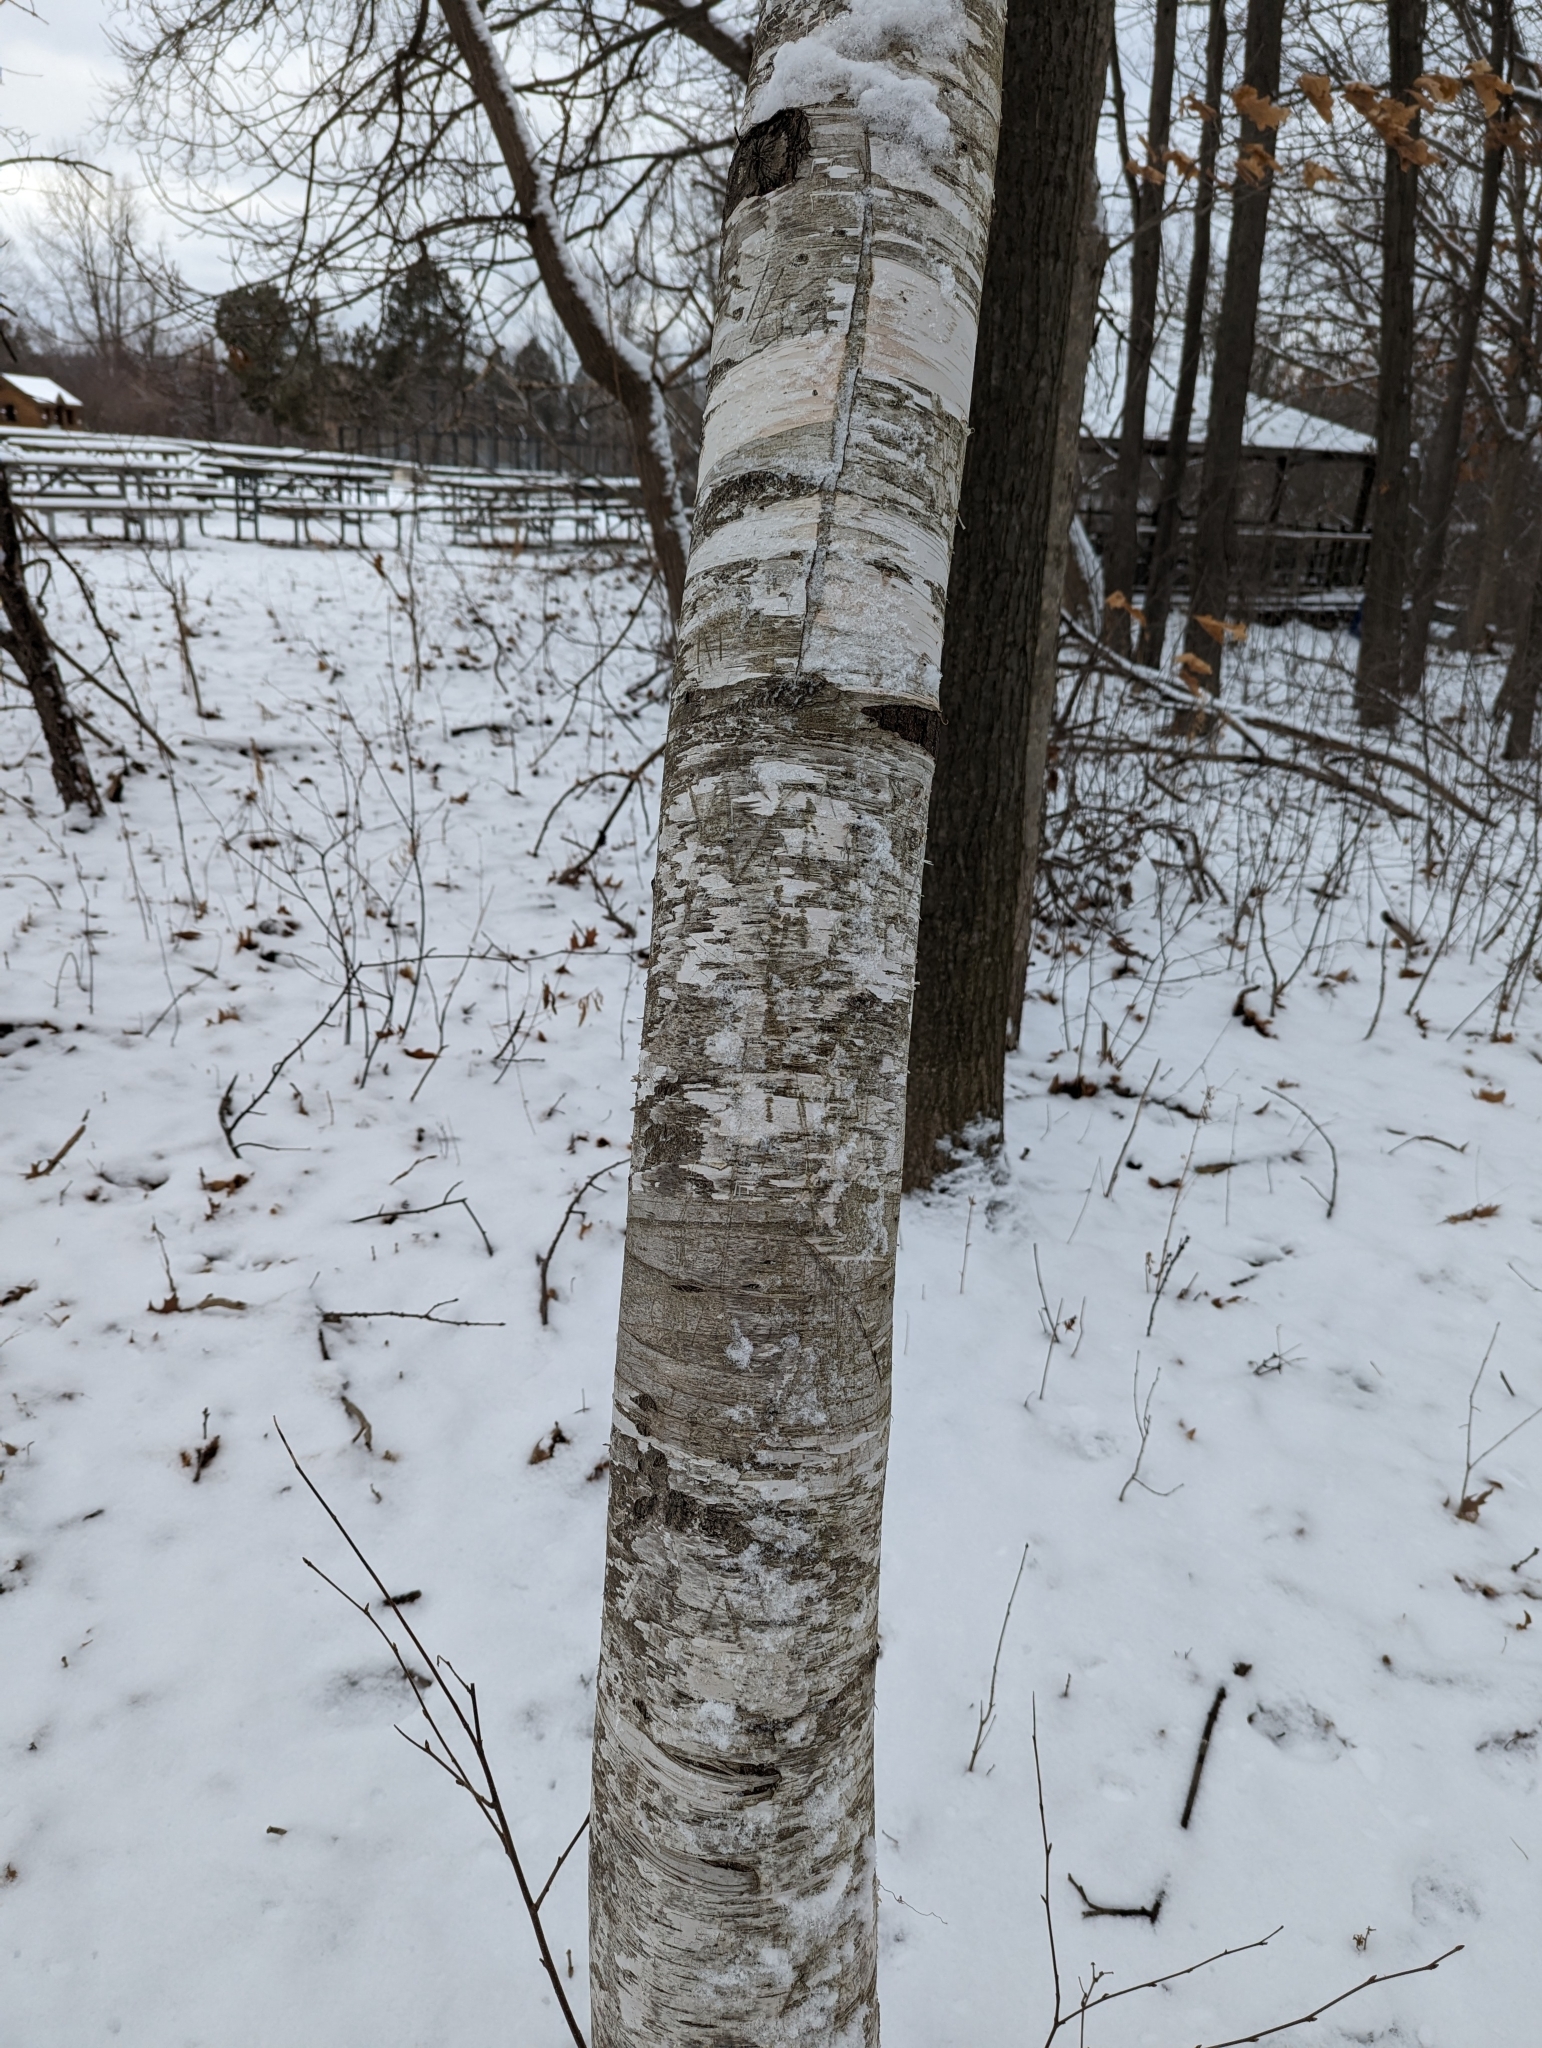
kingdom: Plantae
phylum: Tracheophyta
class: Magnoliopsida
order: Fagales
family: Betulaceae
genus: Betula
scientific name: Betula papyrifera
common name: Paper birch
